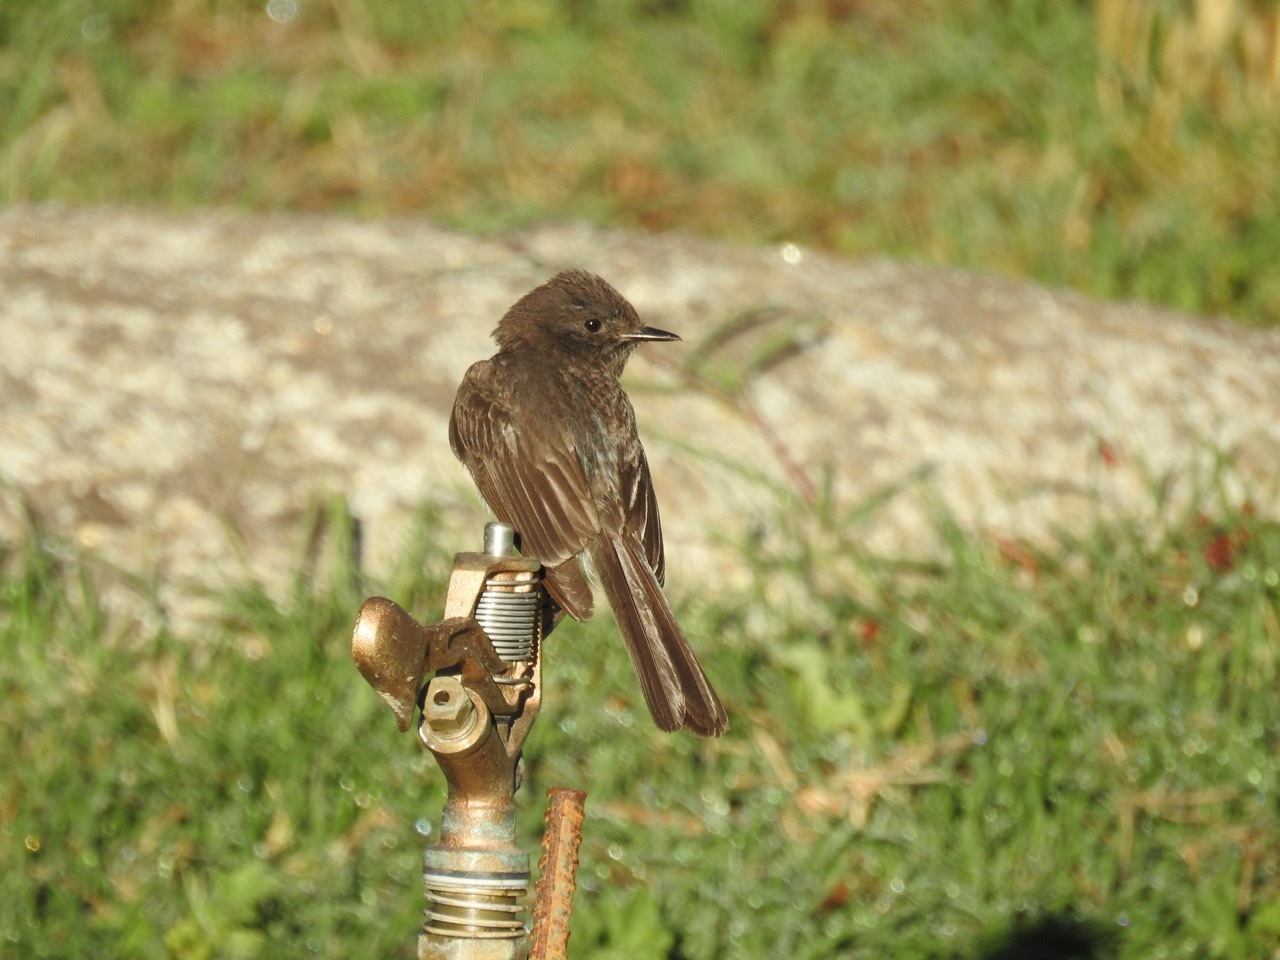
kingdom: Animalia
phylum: Chordata
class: Aves
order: Passeriformes
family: Tyrannidae
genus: Sayornis
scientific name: Sayornis nigricans
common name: Black phoebe
